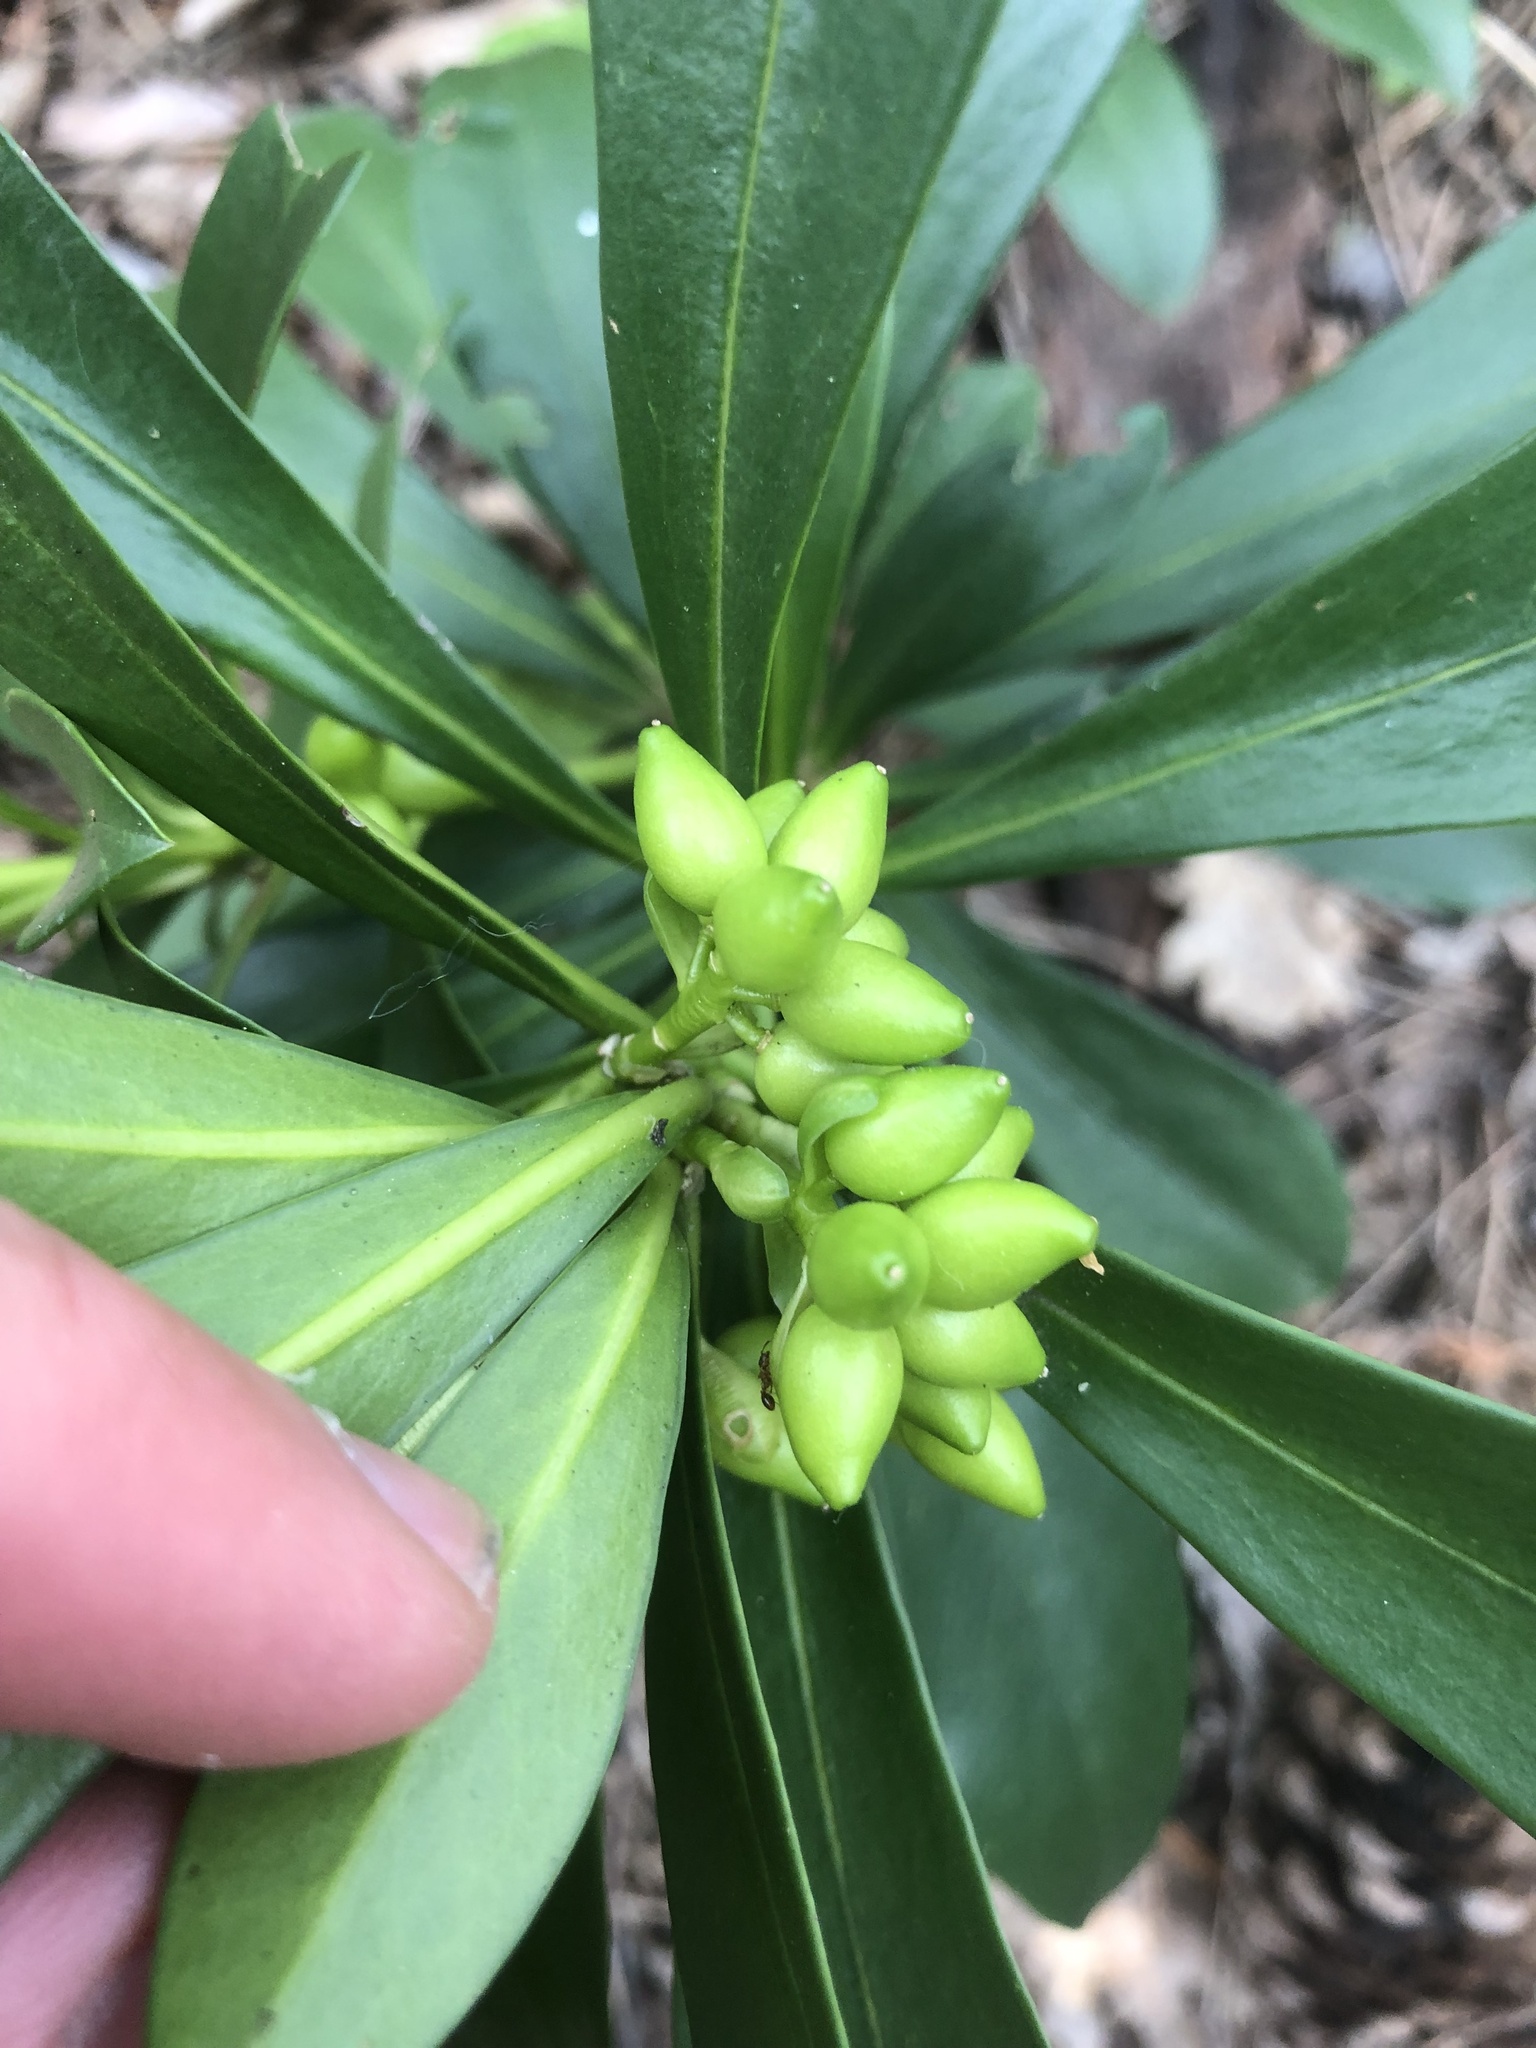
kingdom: Plantae
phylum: Tracheophyta
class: Magnoliopsida
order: Malvales
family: Thymelaeaceae
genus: Daphne
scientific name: Daphne laureola
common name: Spurge-laurel
